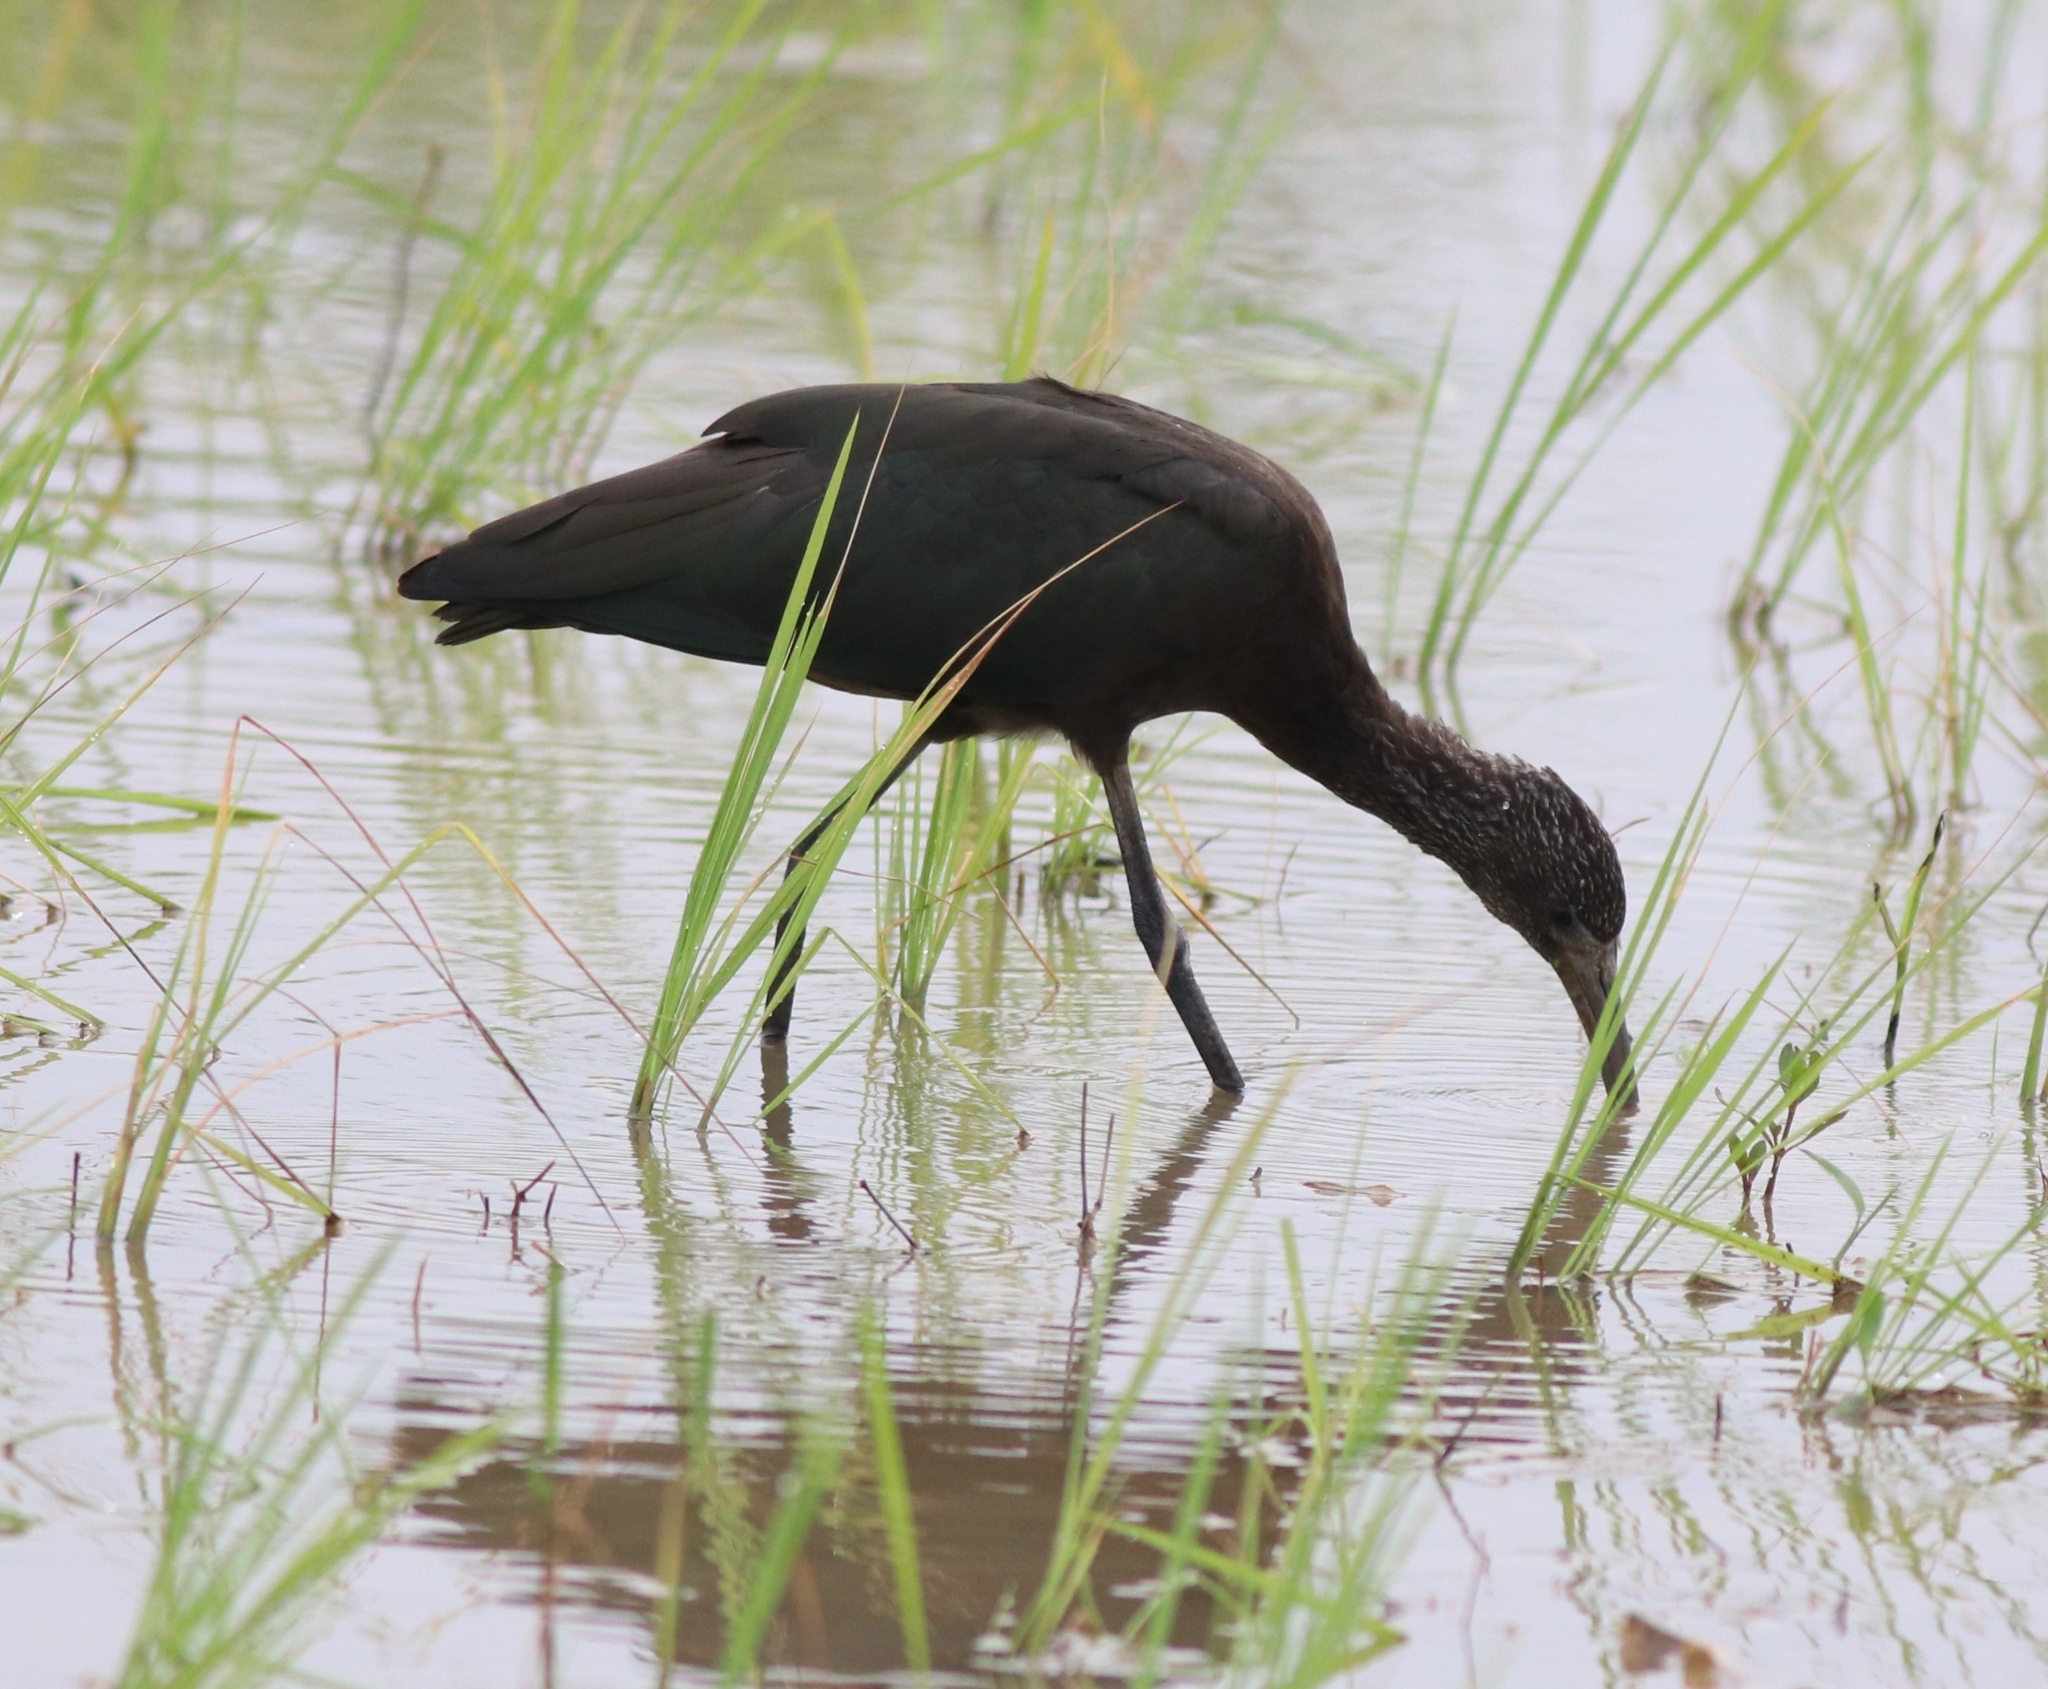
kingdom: Animalia
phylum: Chordata
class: Aves
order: Pelecaniformes
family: Threskiornithidae
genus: Plegadis
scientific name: Plegadis falcinellus
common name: Glossy ibis
